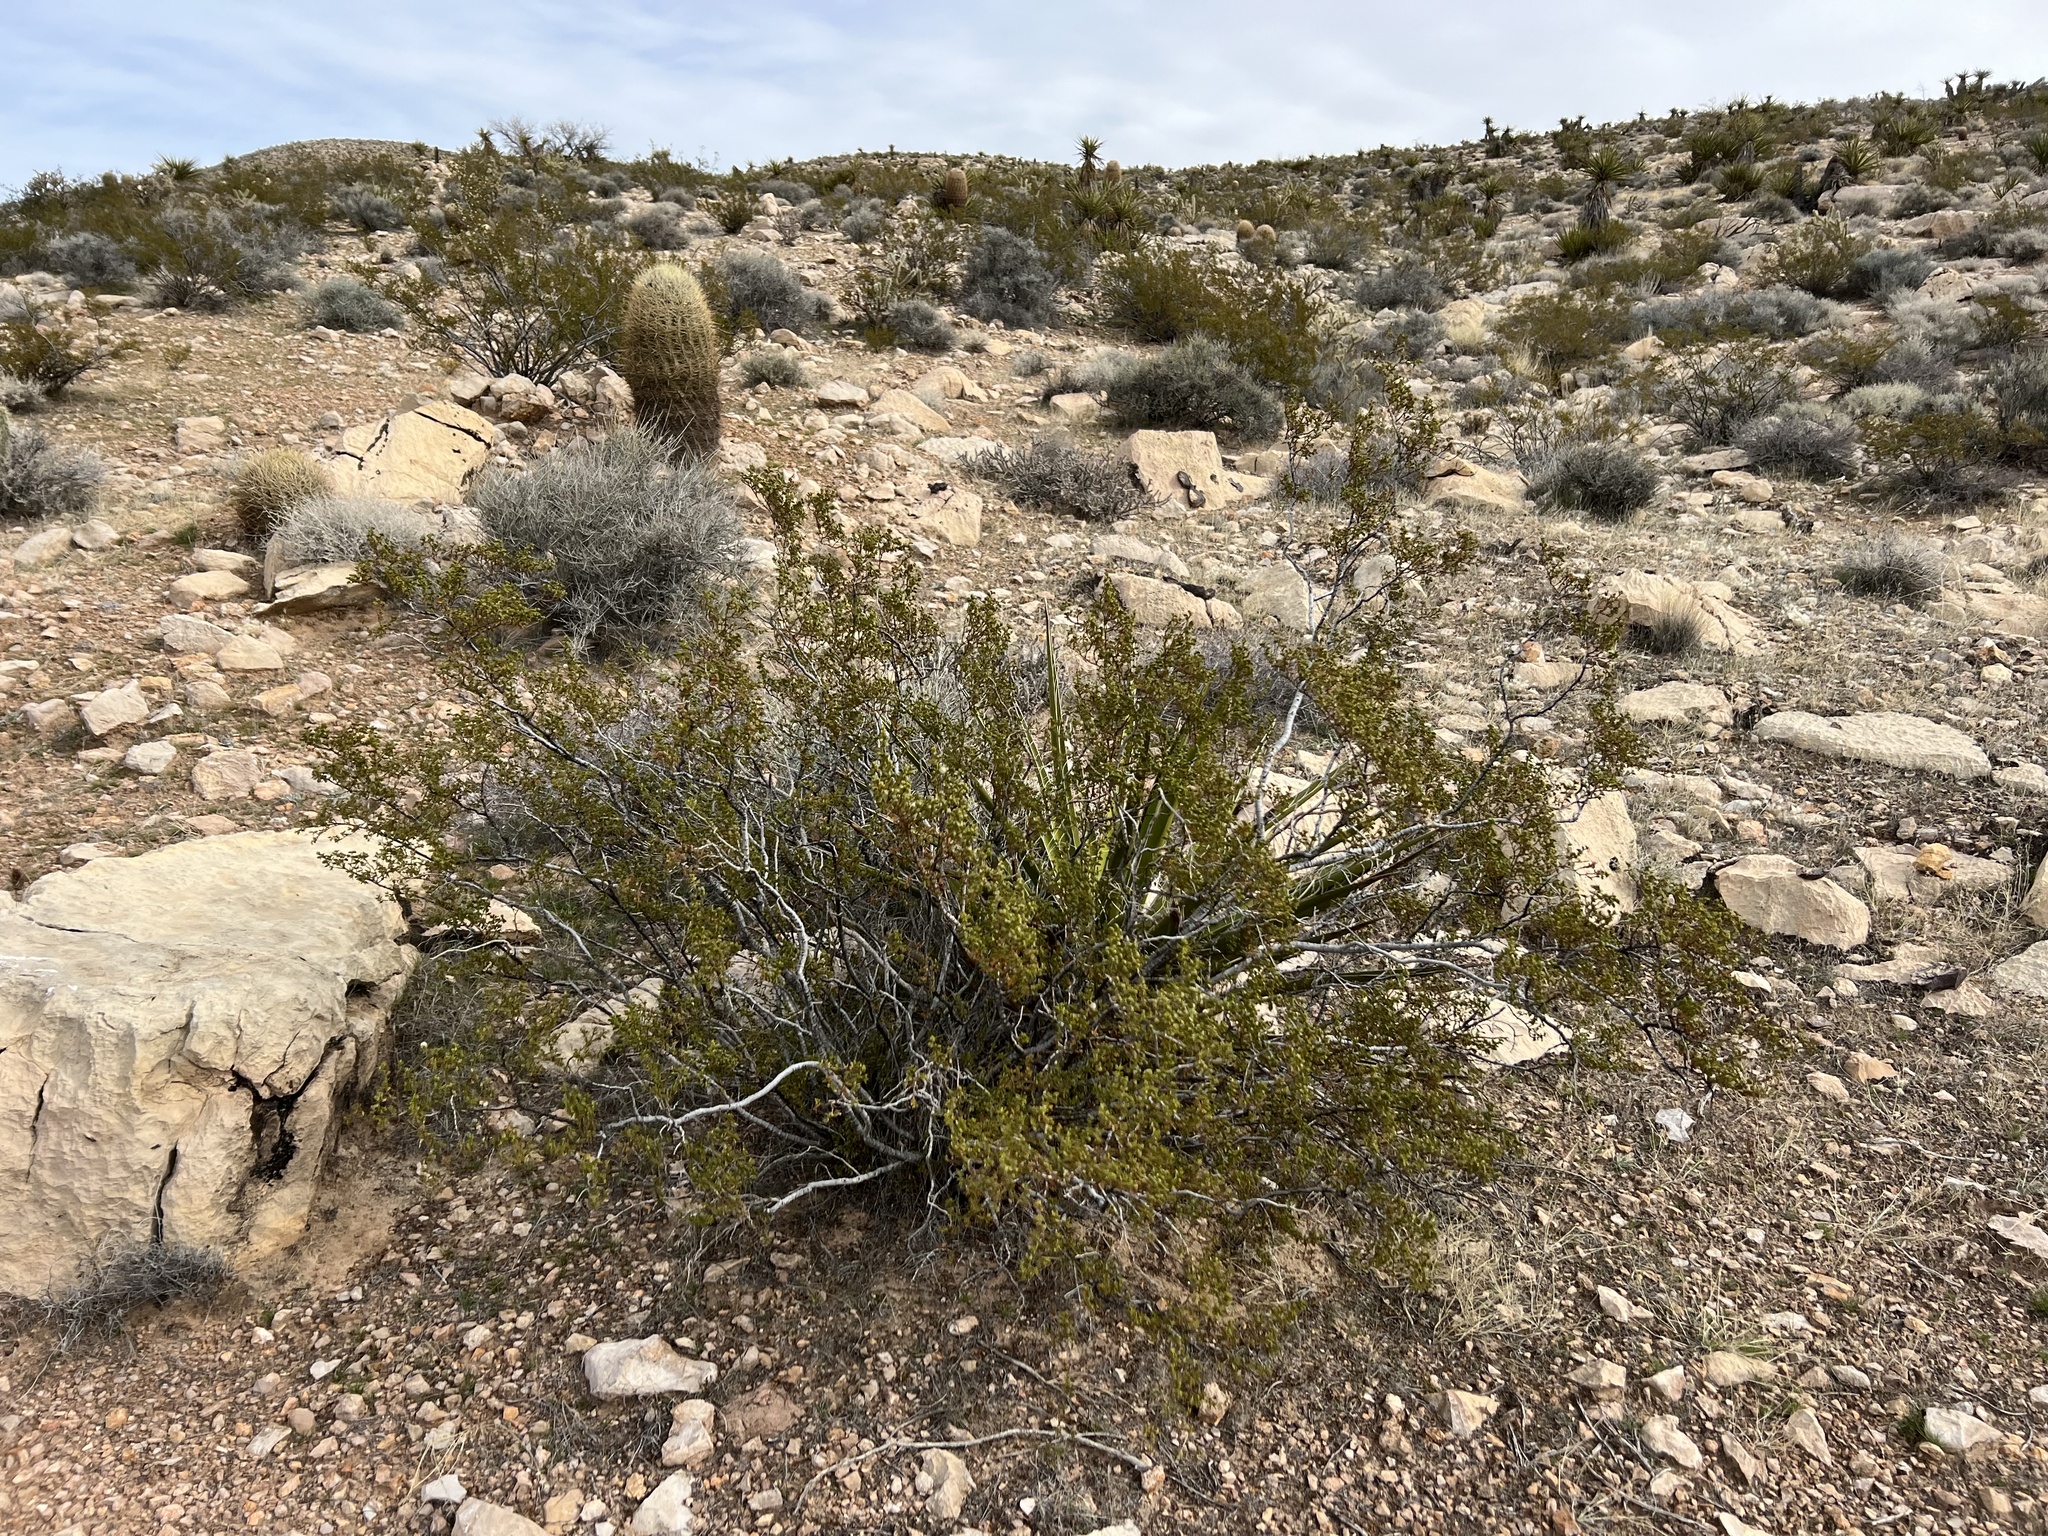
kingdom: Plantae
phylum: Tracheophyta
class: Magnoliopsida
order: Zygophyllales
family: Zygophyllaceae
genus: Larrea
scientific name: Larrea tridentata
